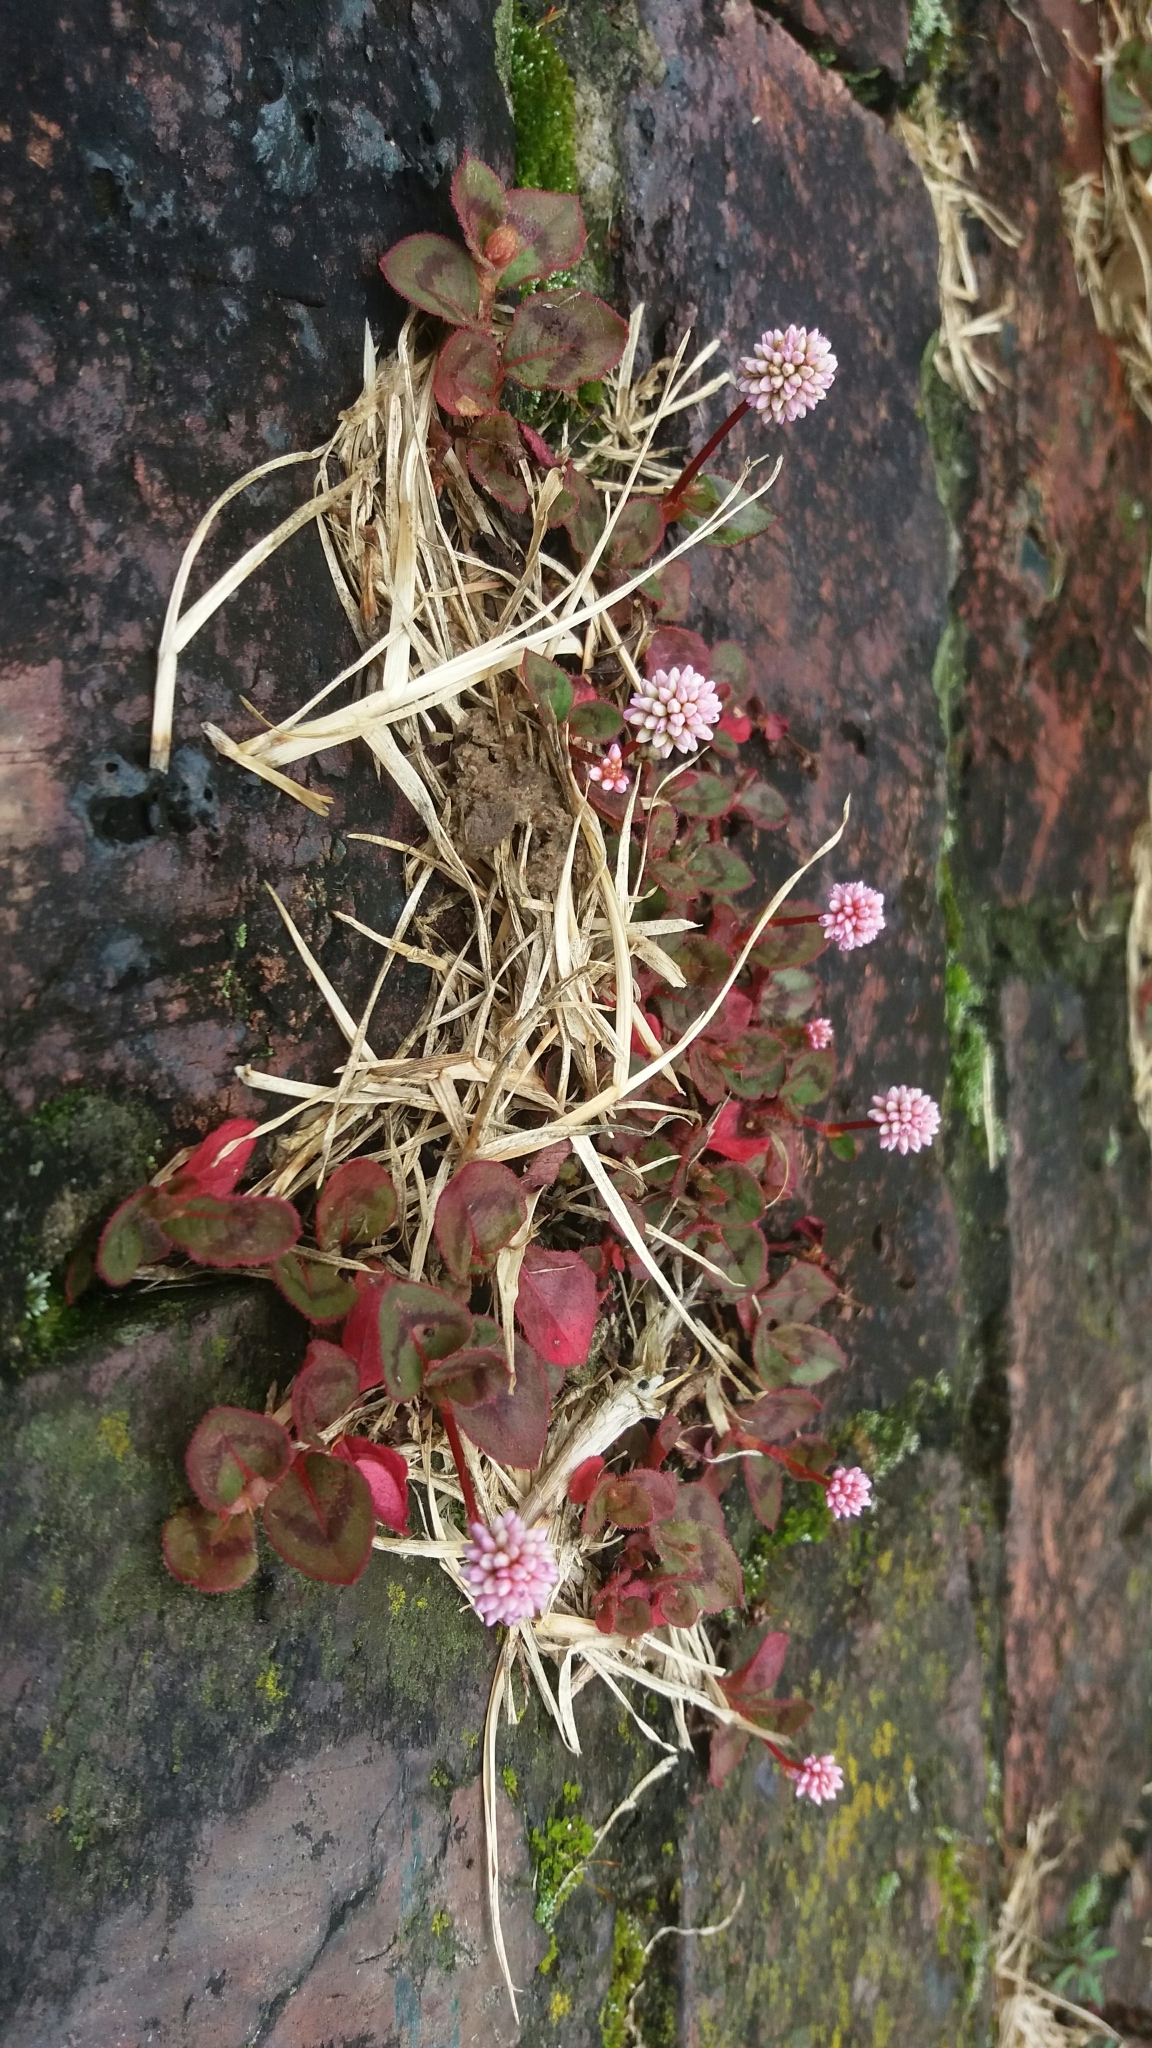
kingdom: Plantae
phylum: Tracheophyta
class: Magnoliopsida
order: Caryophyllales
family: Polygonaceae
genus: Persicaria
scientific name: Persicaria capitata
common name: Pinkhead smartweed
